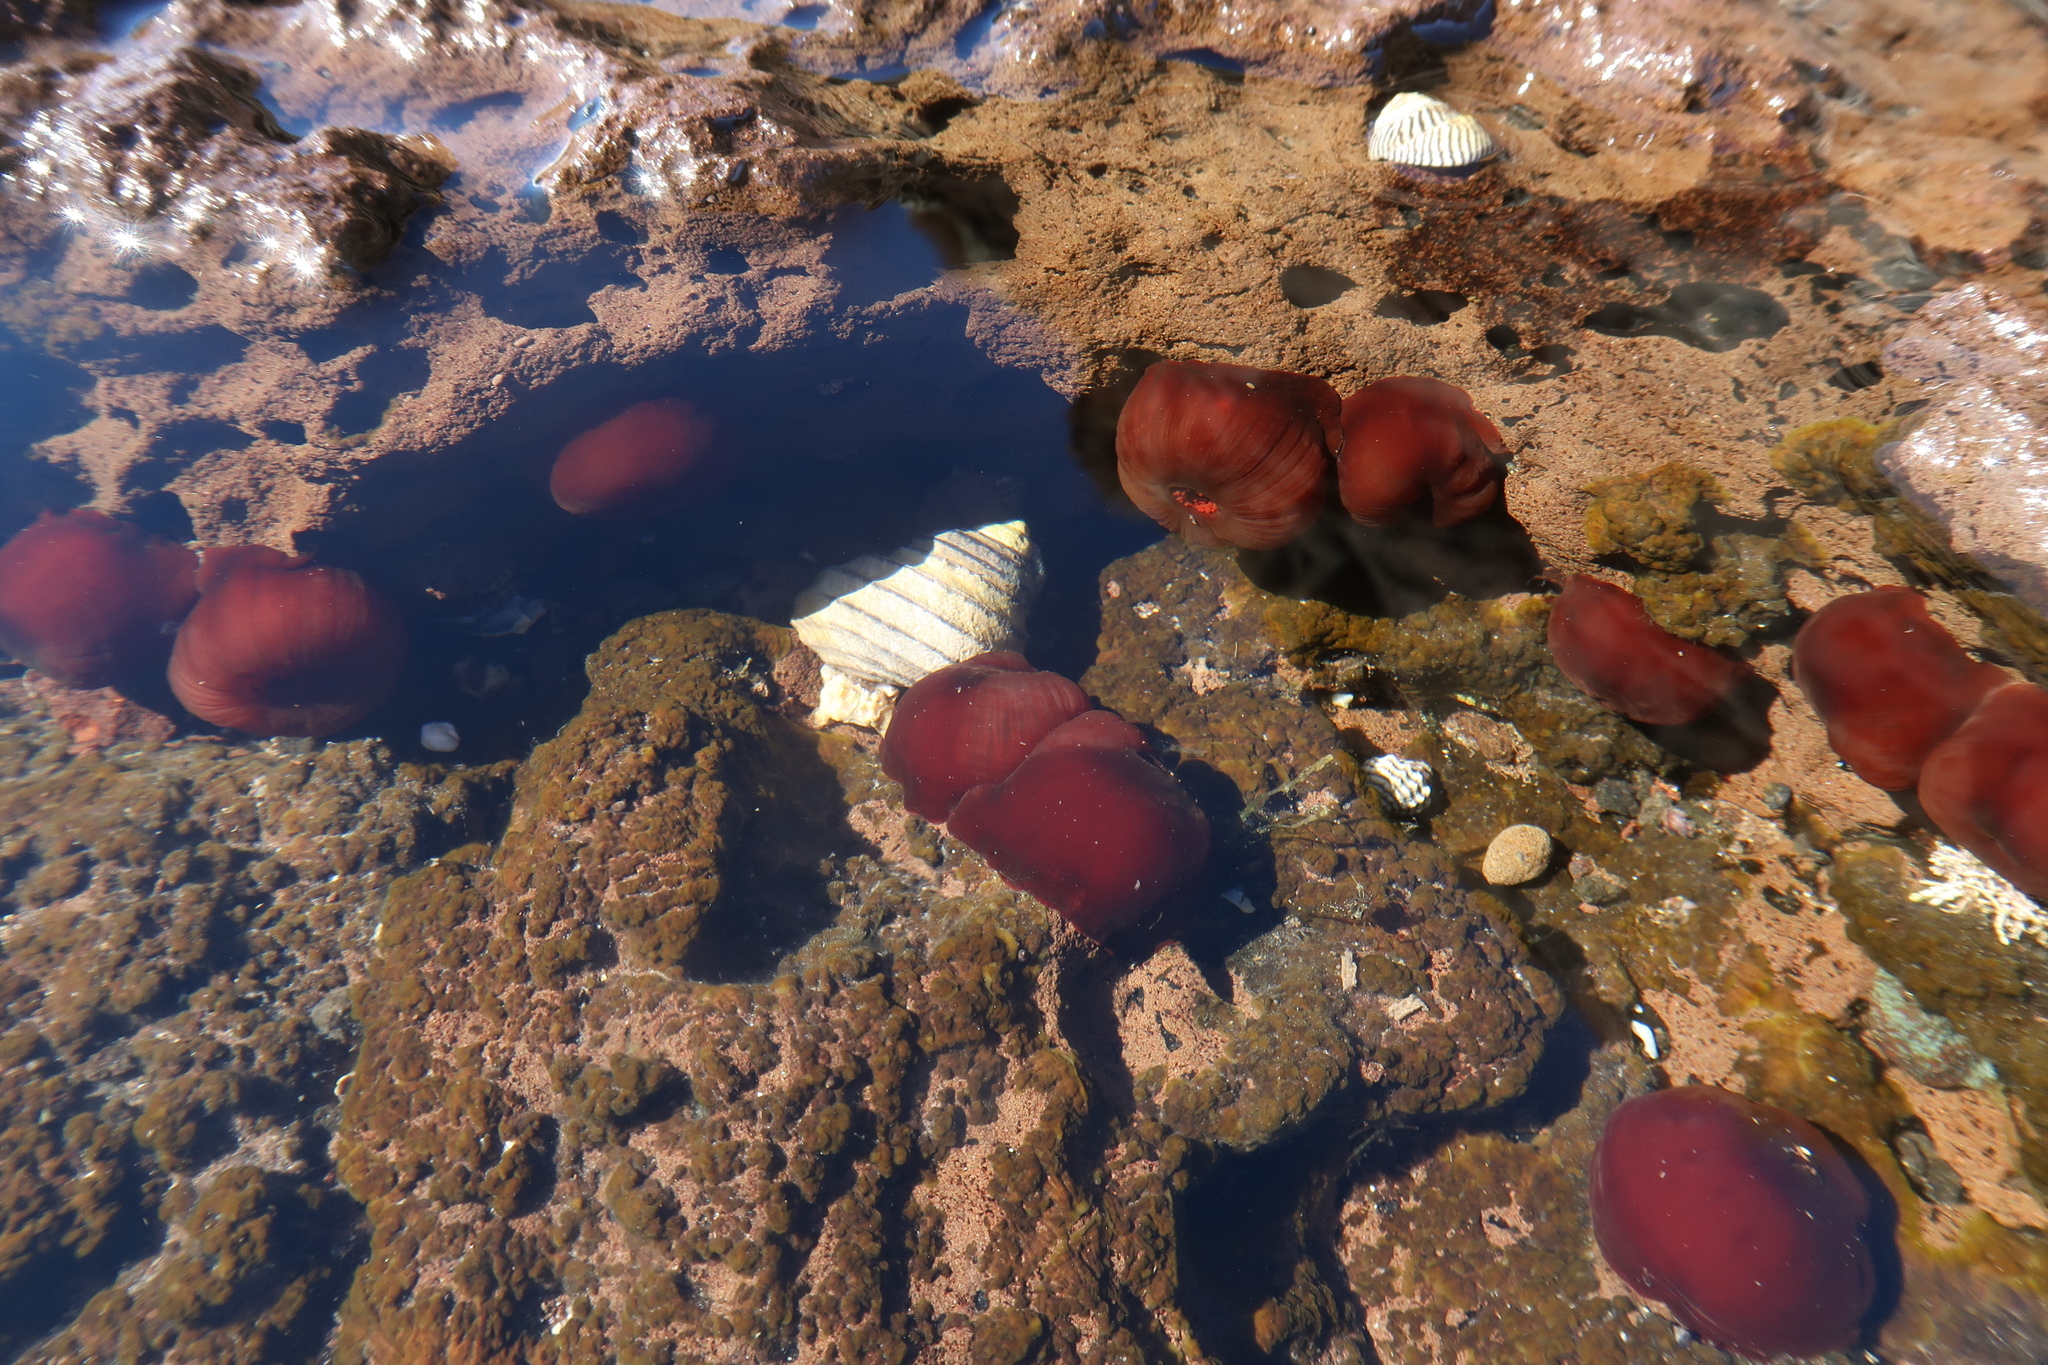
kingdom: Animalia
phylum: Cnidaria
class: Anthozoa
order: Actiniaria
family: Actiniidae
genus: Actinia
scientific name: Actinia tenebrosa
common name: Waratah anemone
